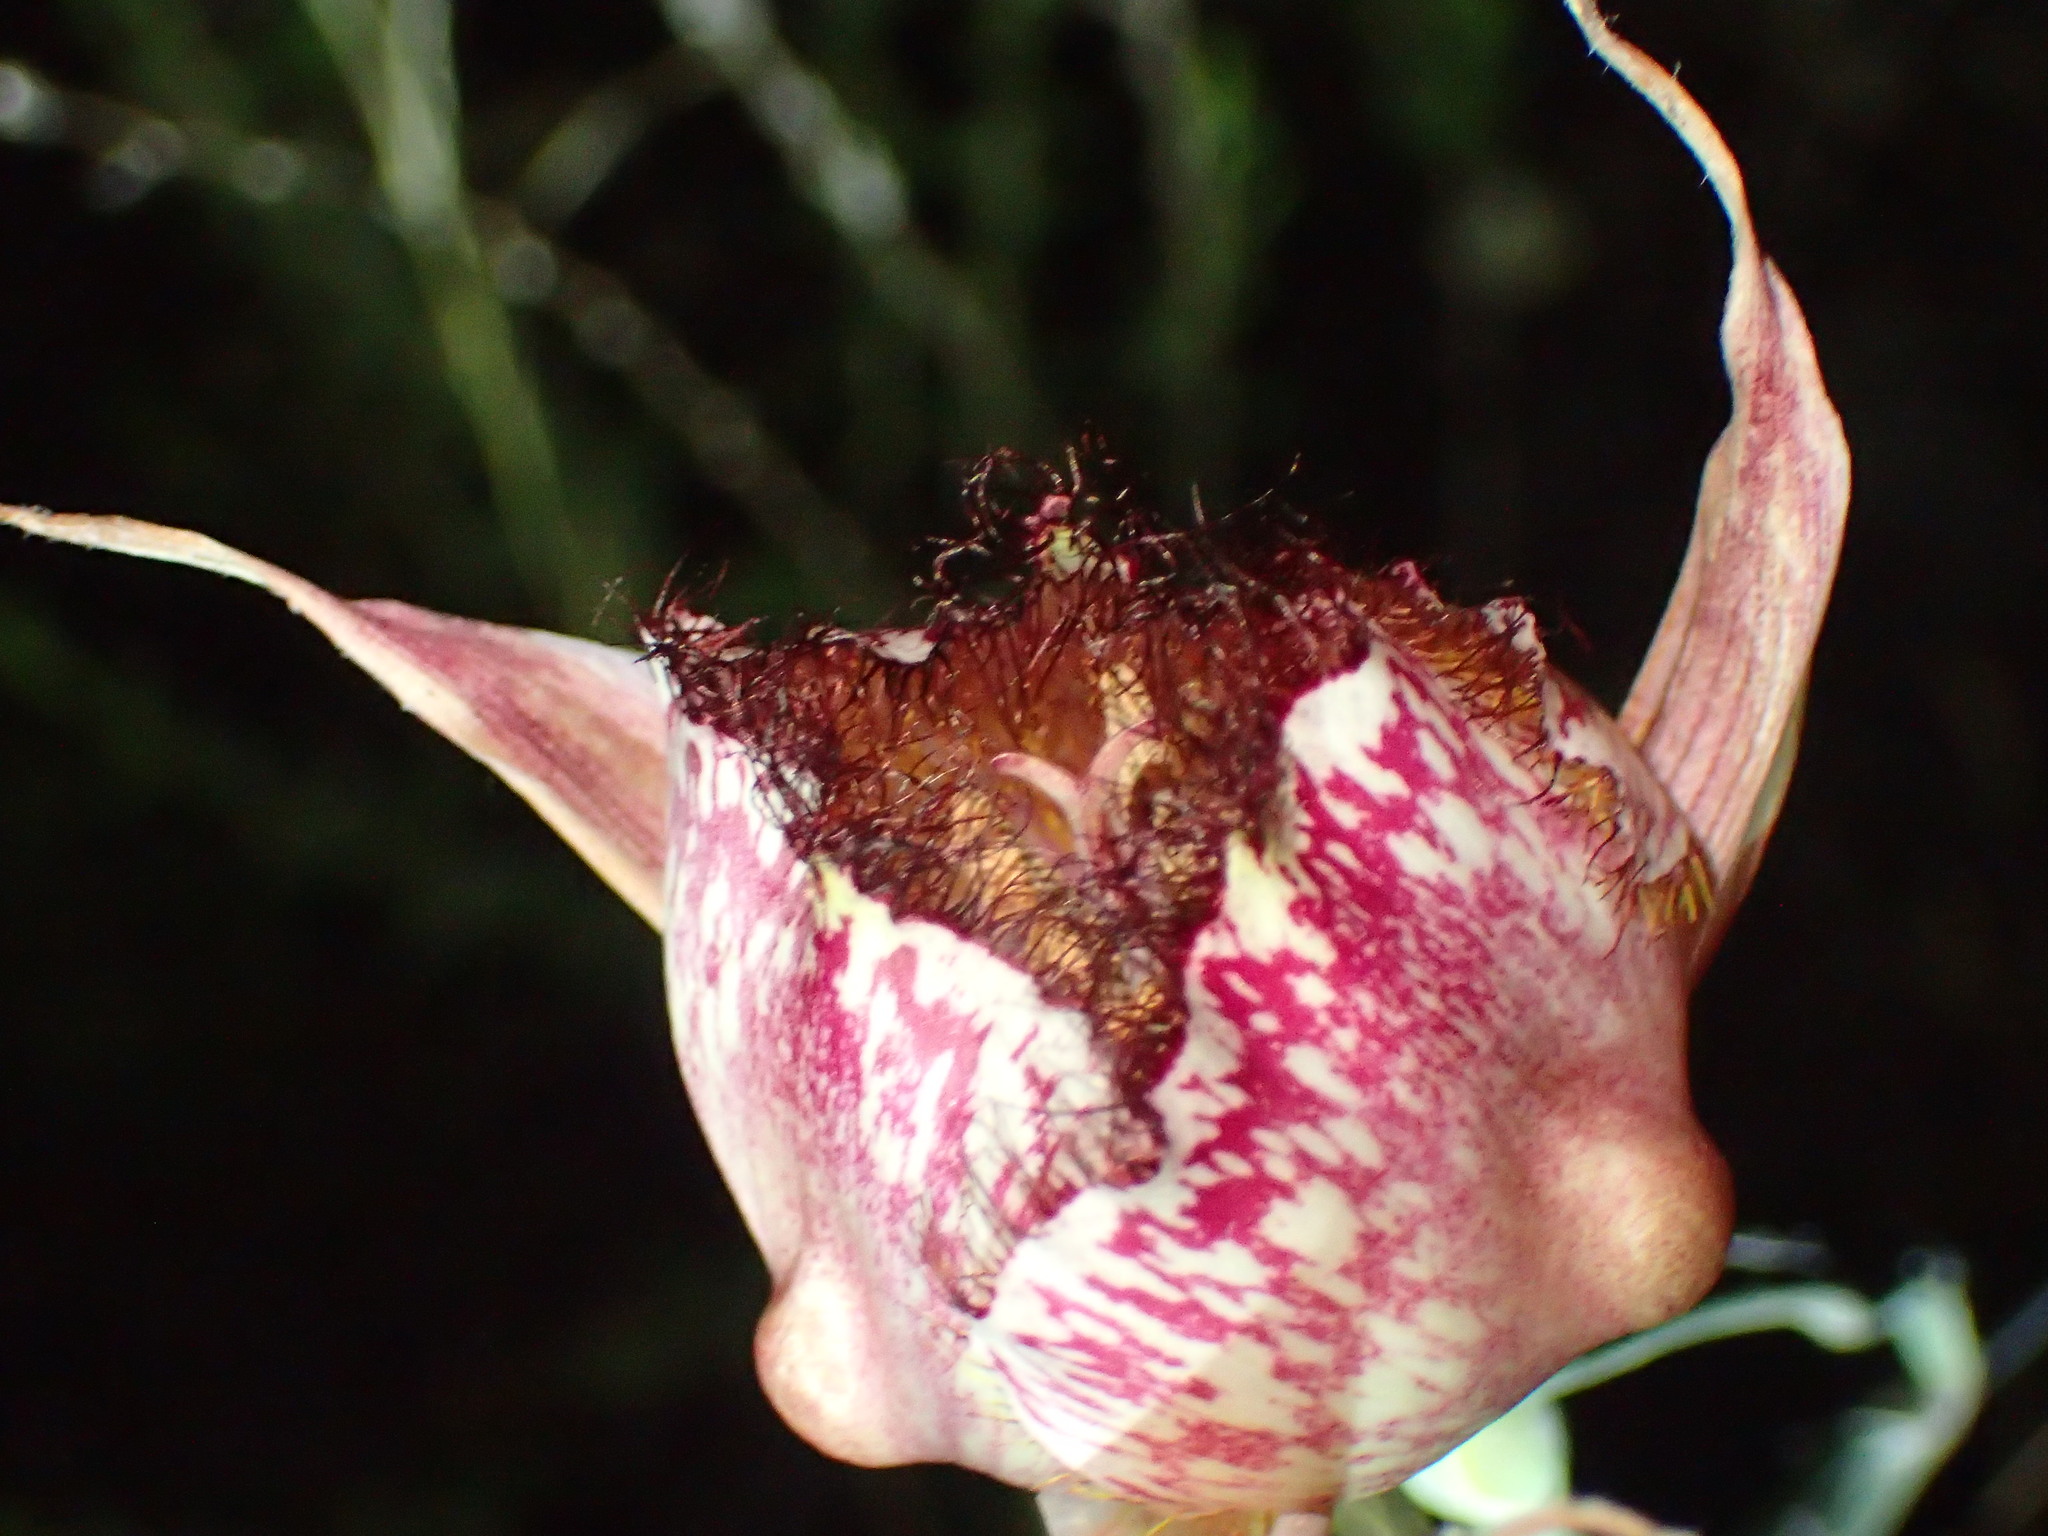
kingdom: Plantae
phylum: Tracheophyta
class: Liliopsida
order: Liliales
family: Liliaceae
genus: Calochortus
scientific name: Calochortus fimbriatus
